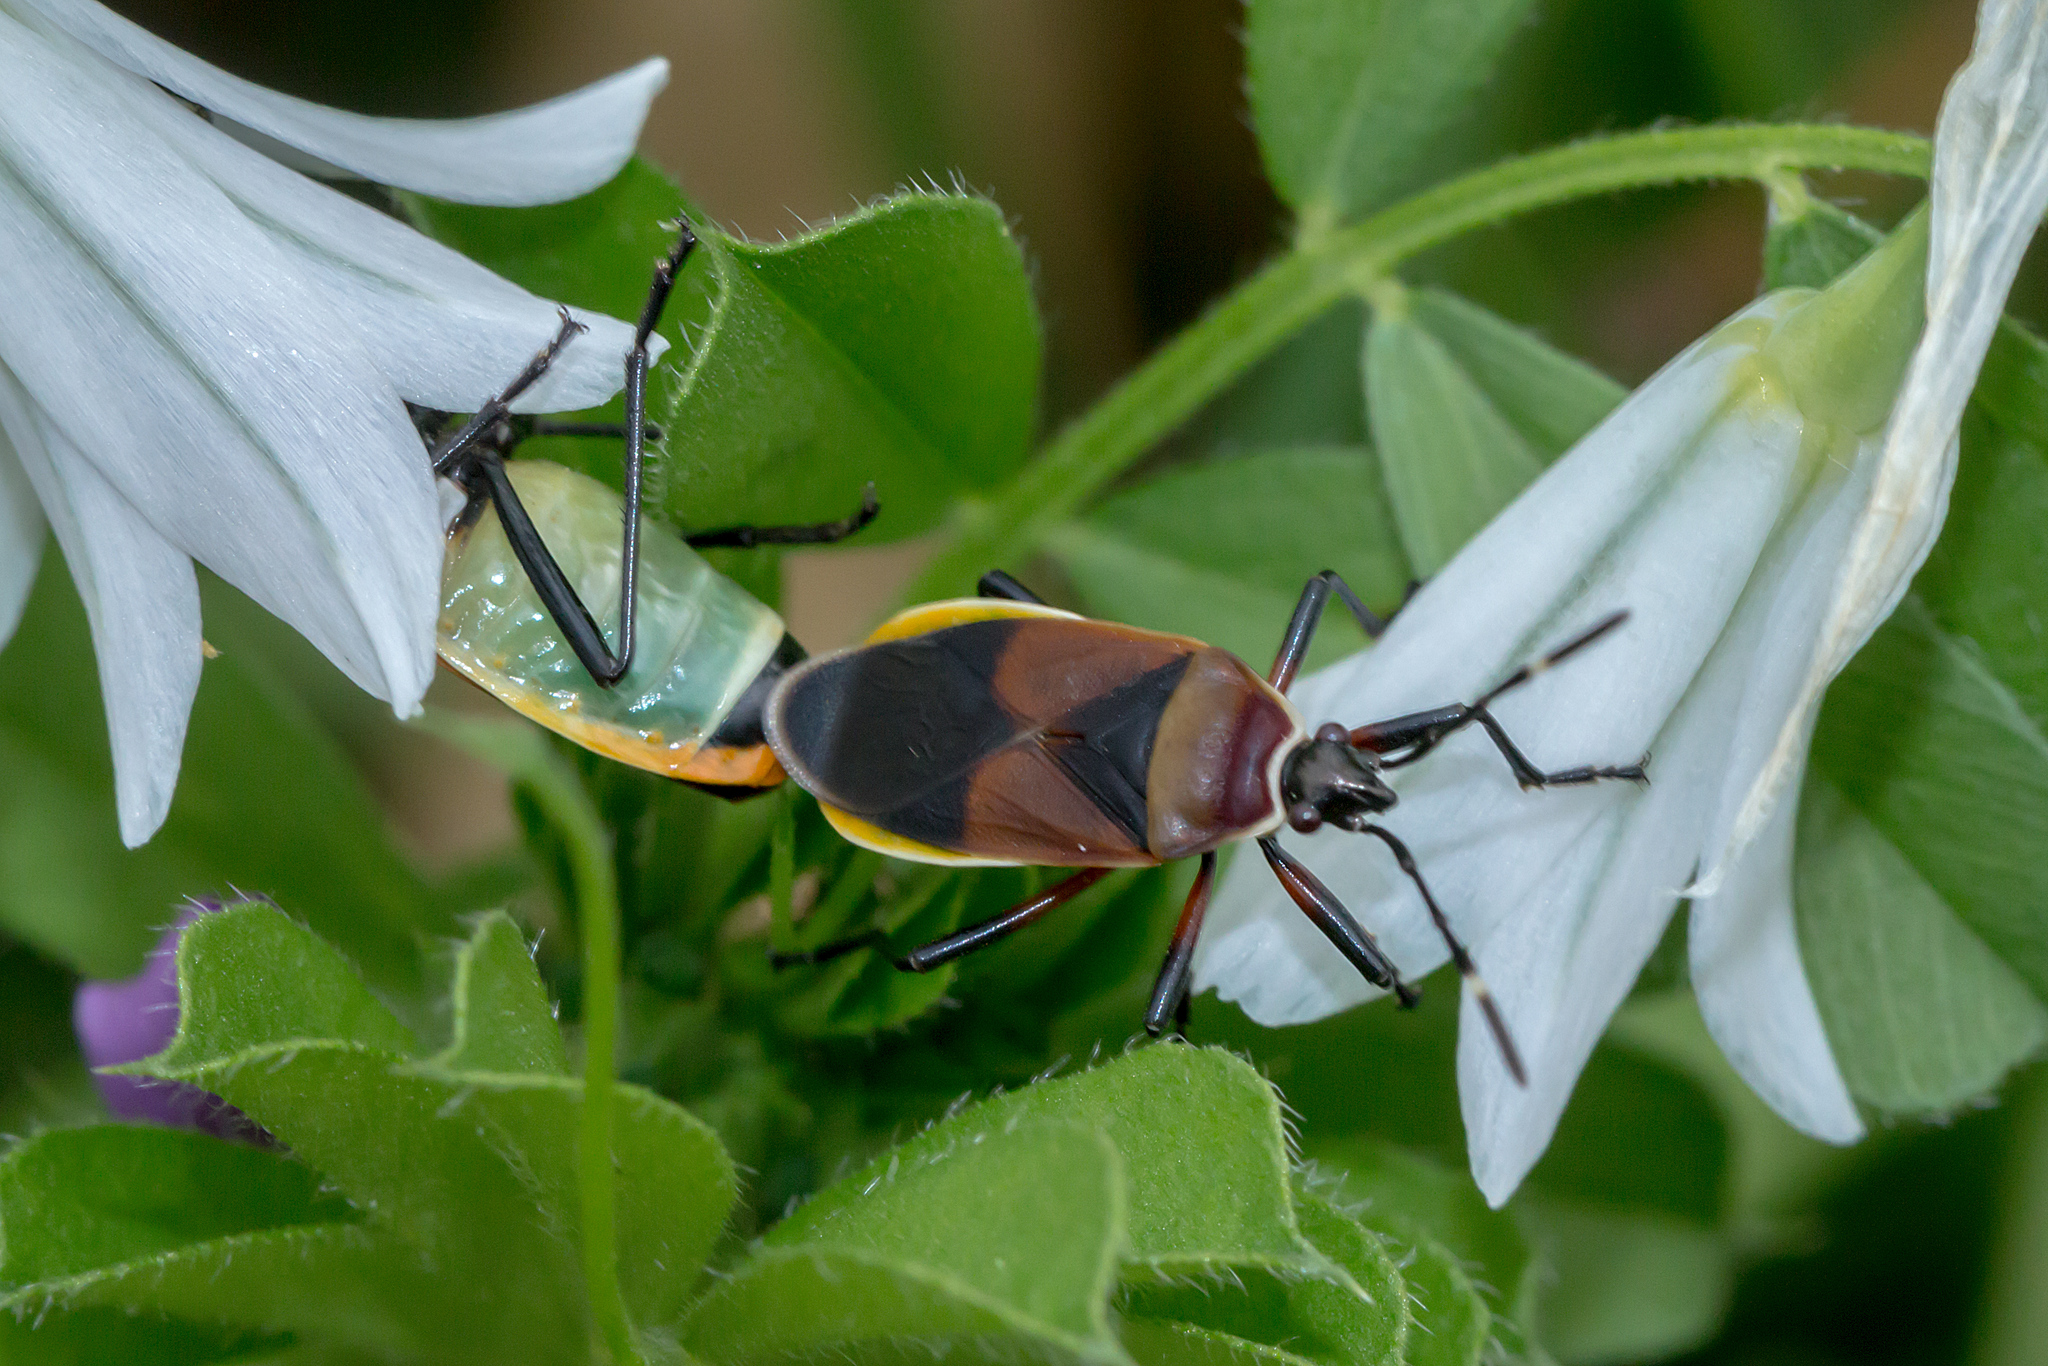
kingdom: Animalia
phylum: Arthropoda
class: Insecta
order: Hemiptera
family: Pyrrhocoridae
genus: Dindymus
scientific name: Dindymus
